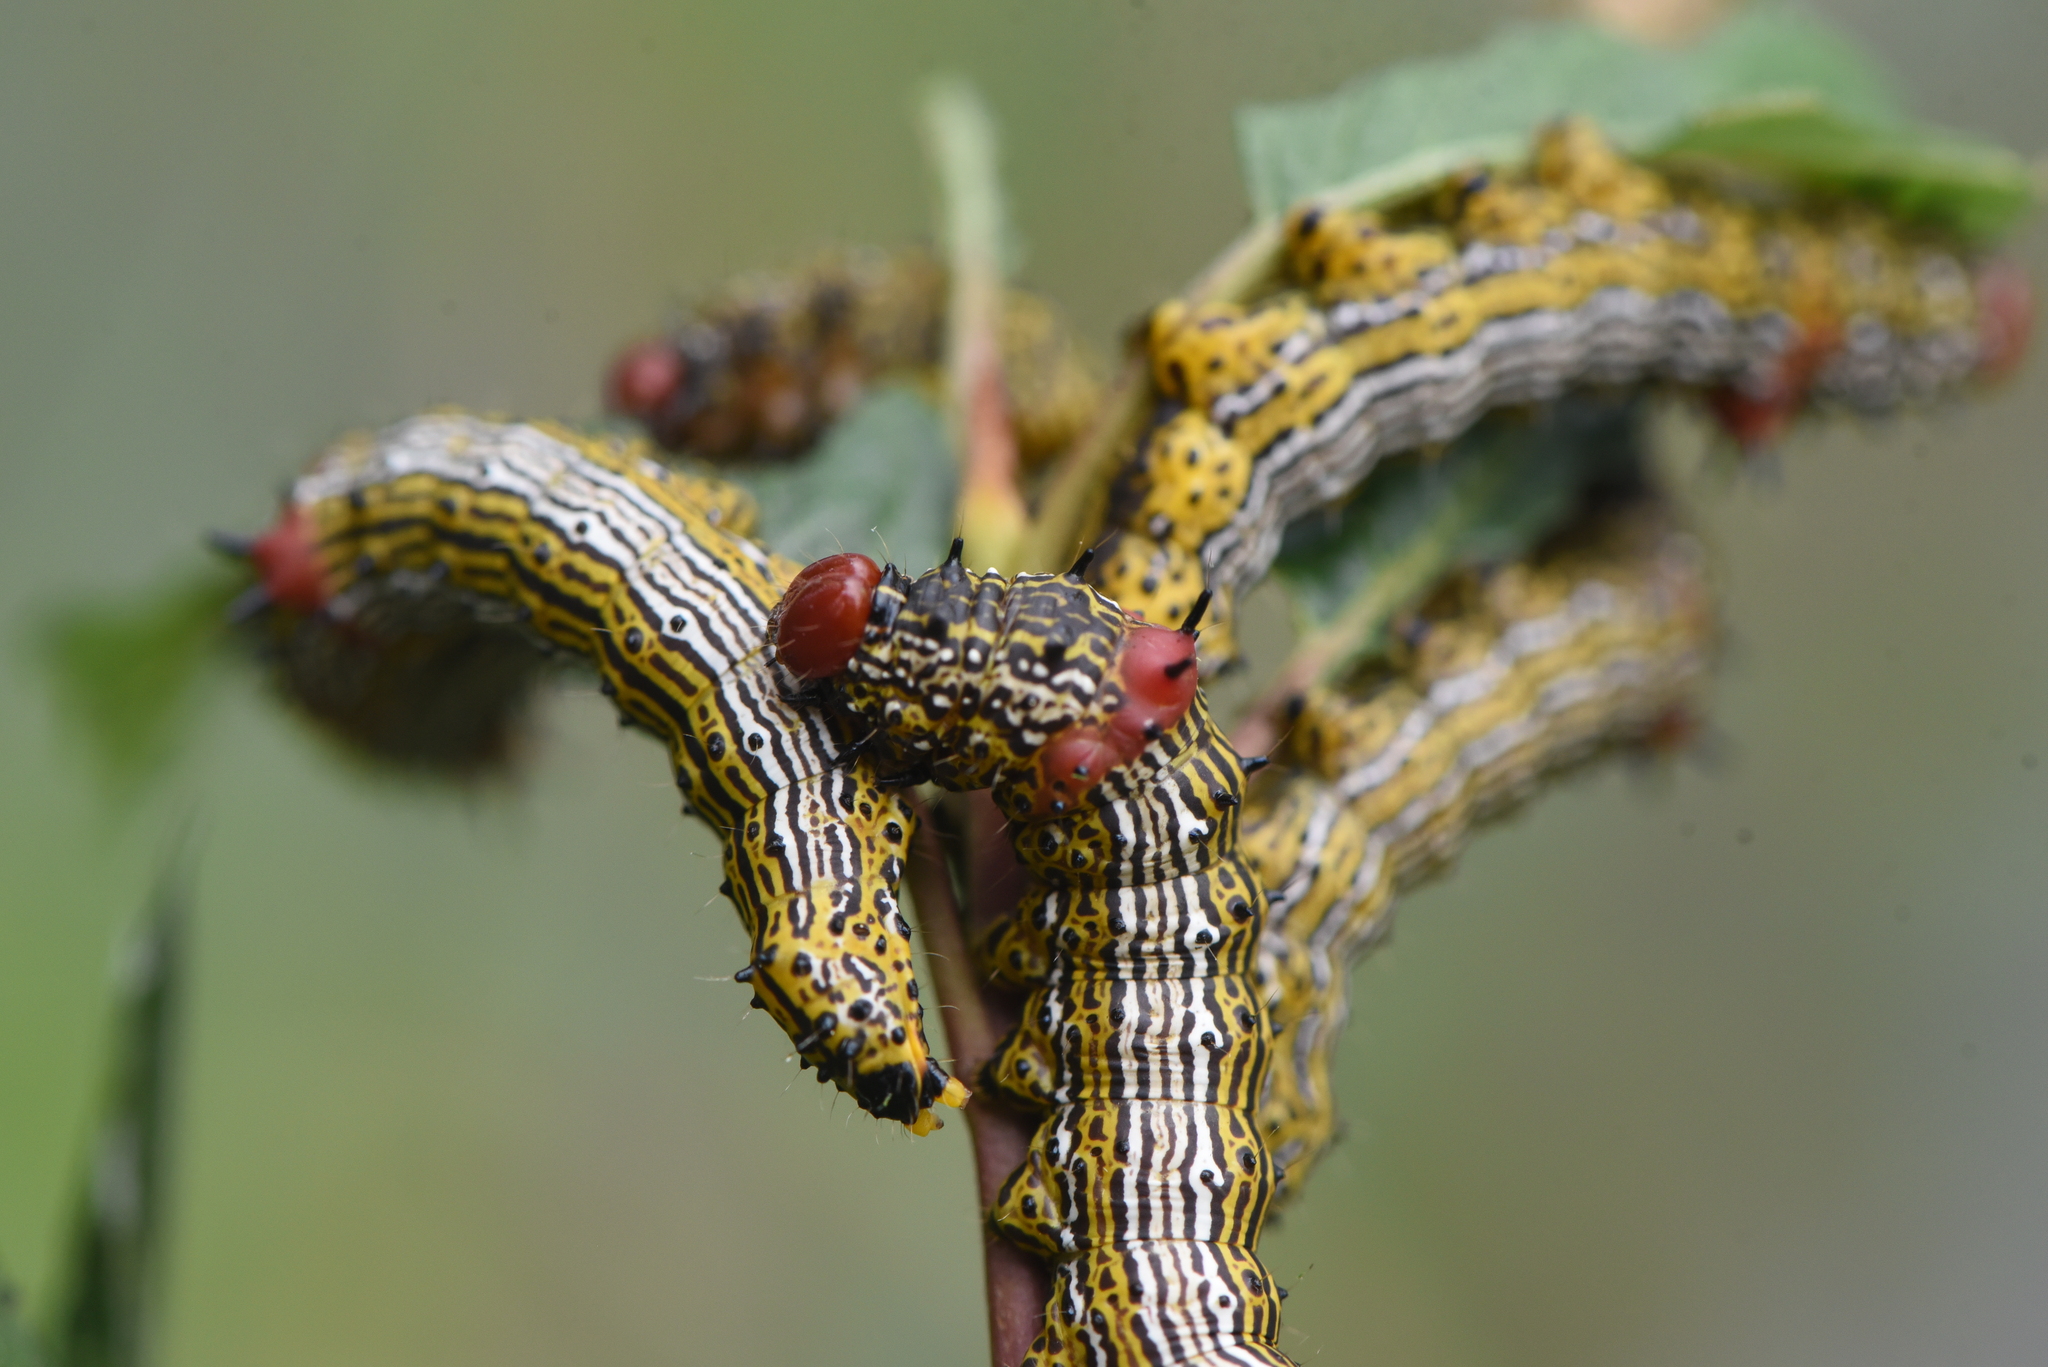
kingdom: Animalia
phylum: Arthropoda
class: Insecta
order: Lepidoptera
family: Notodontidae
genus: Schizura
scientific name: Schizura
